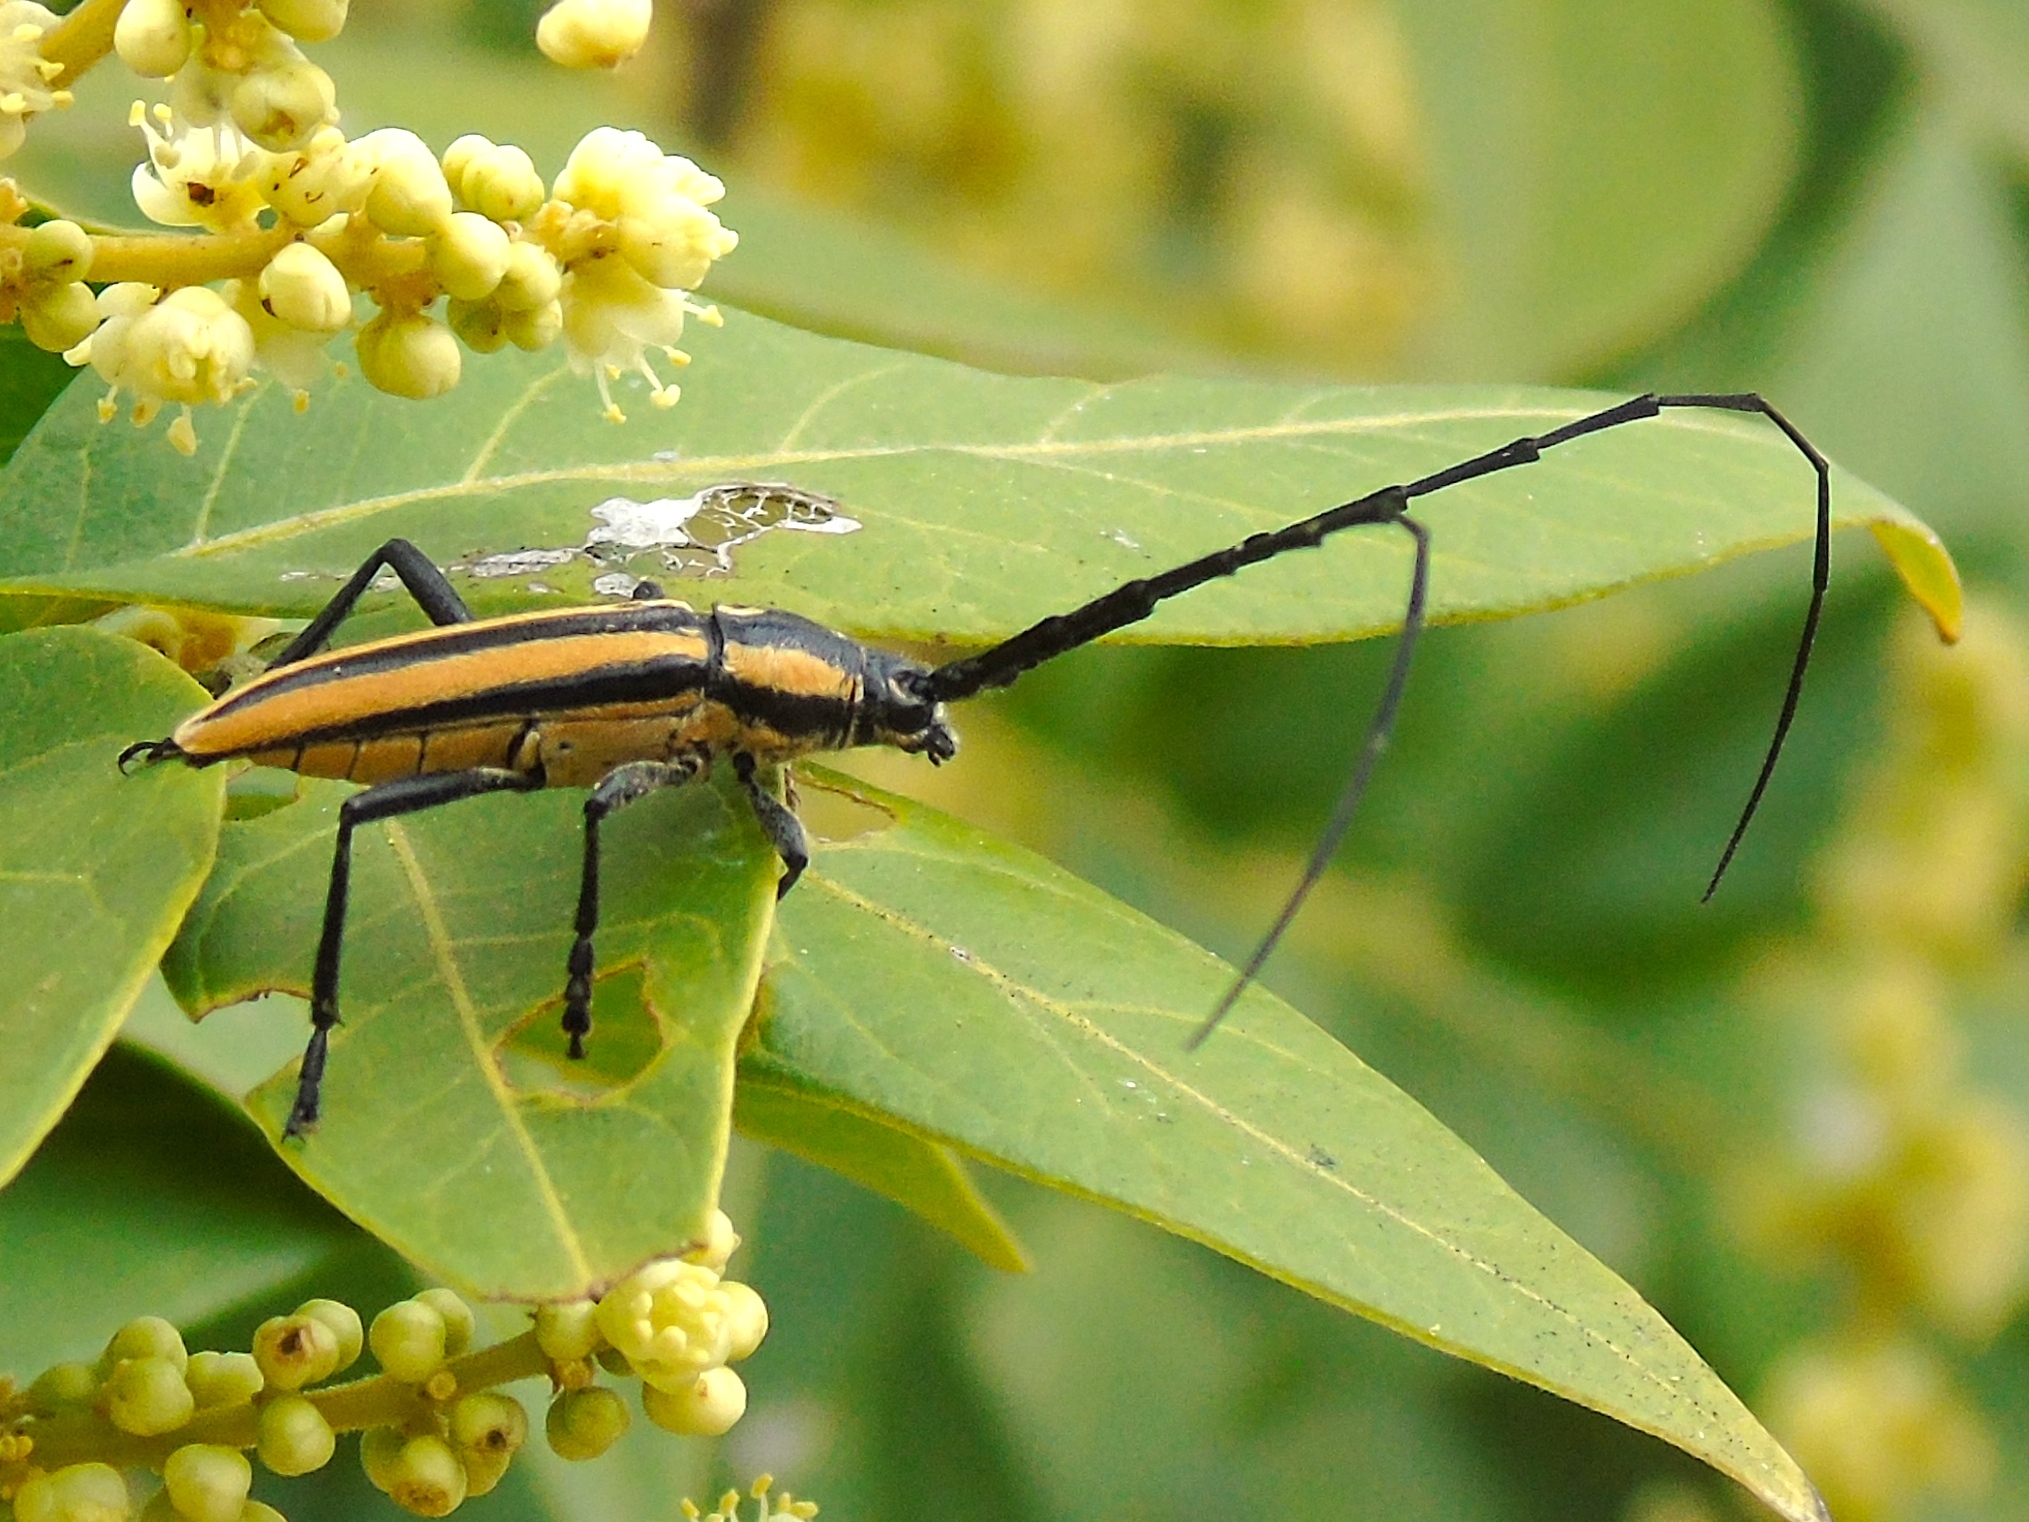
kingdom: Animalia
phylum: Arthropoda
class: Insecta
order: Coleoptera
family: Cerambycidae
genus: Sphaenothecus
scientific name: Sphaenothecus trilineatus
